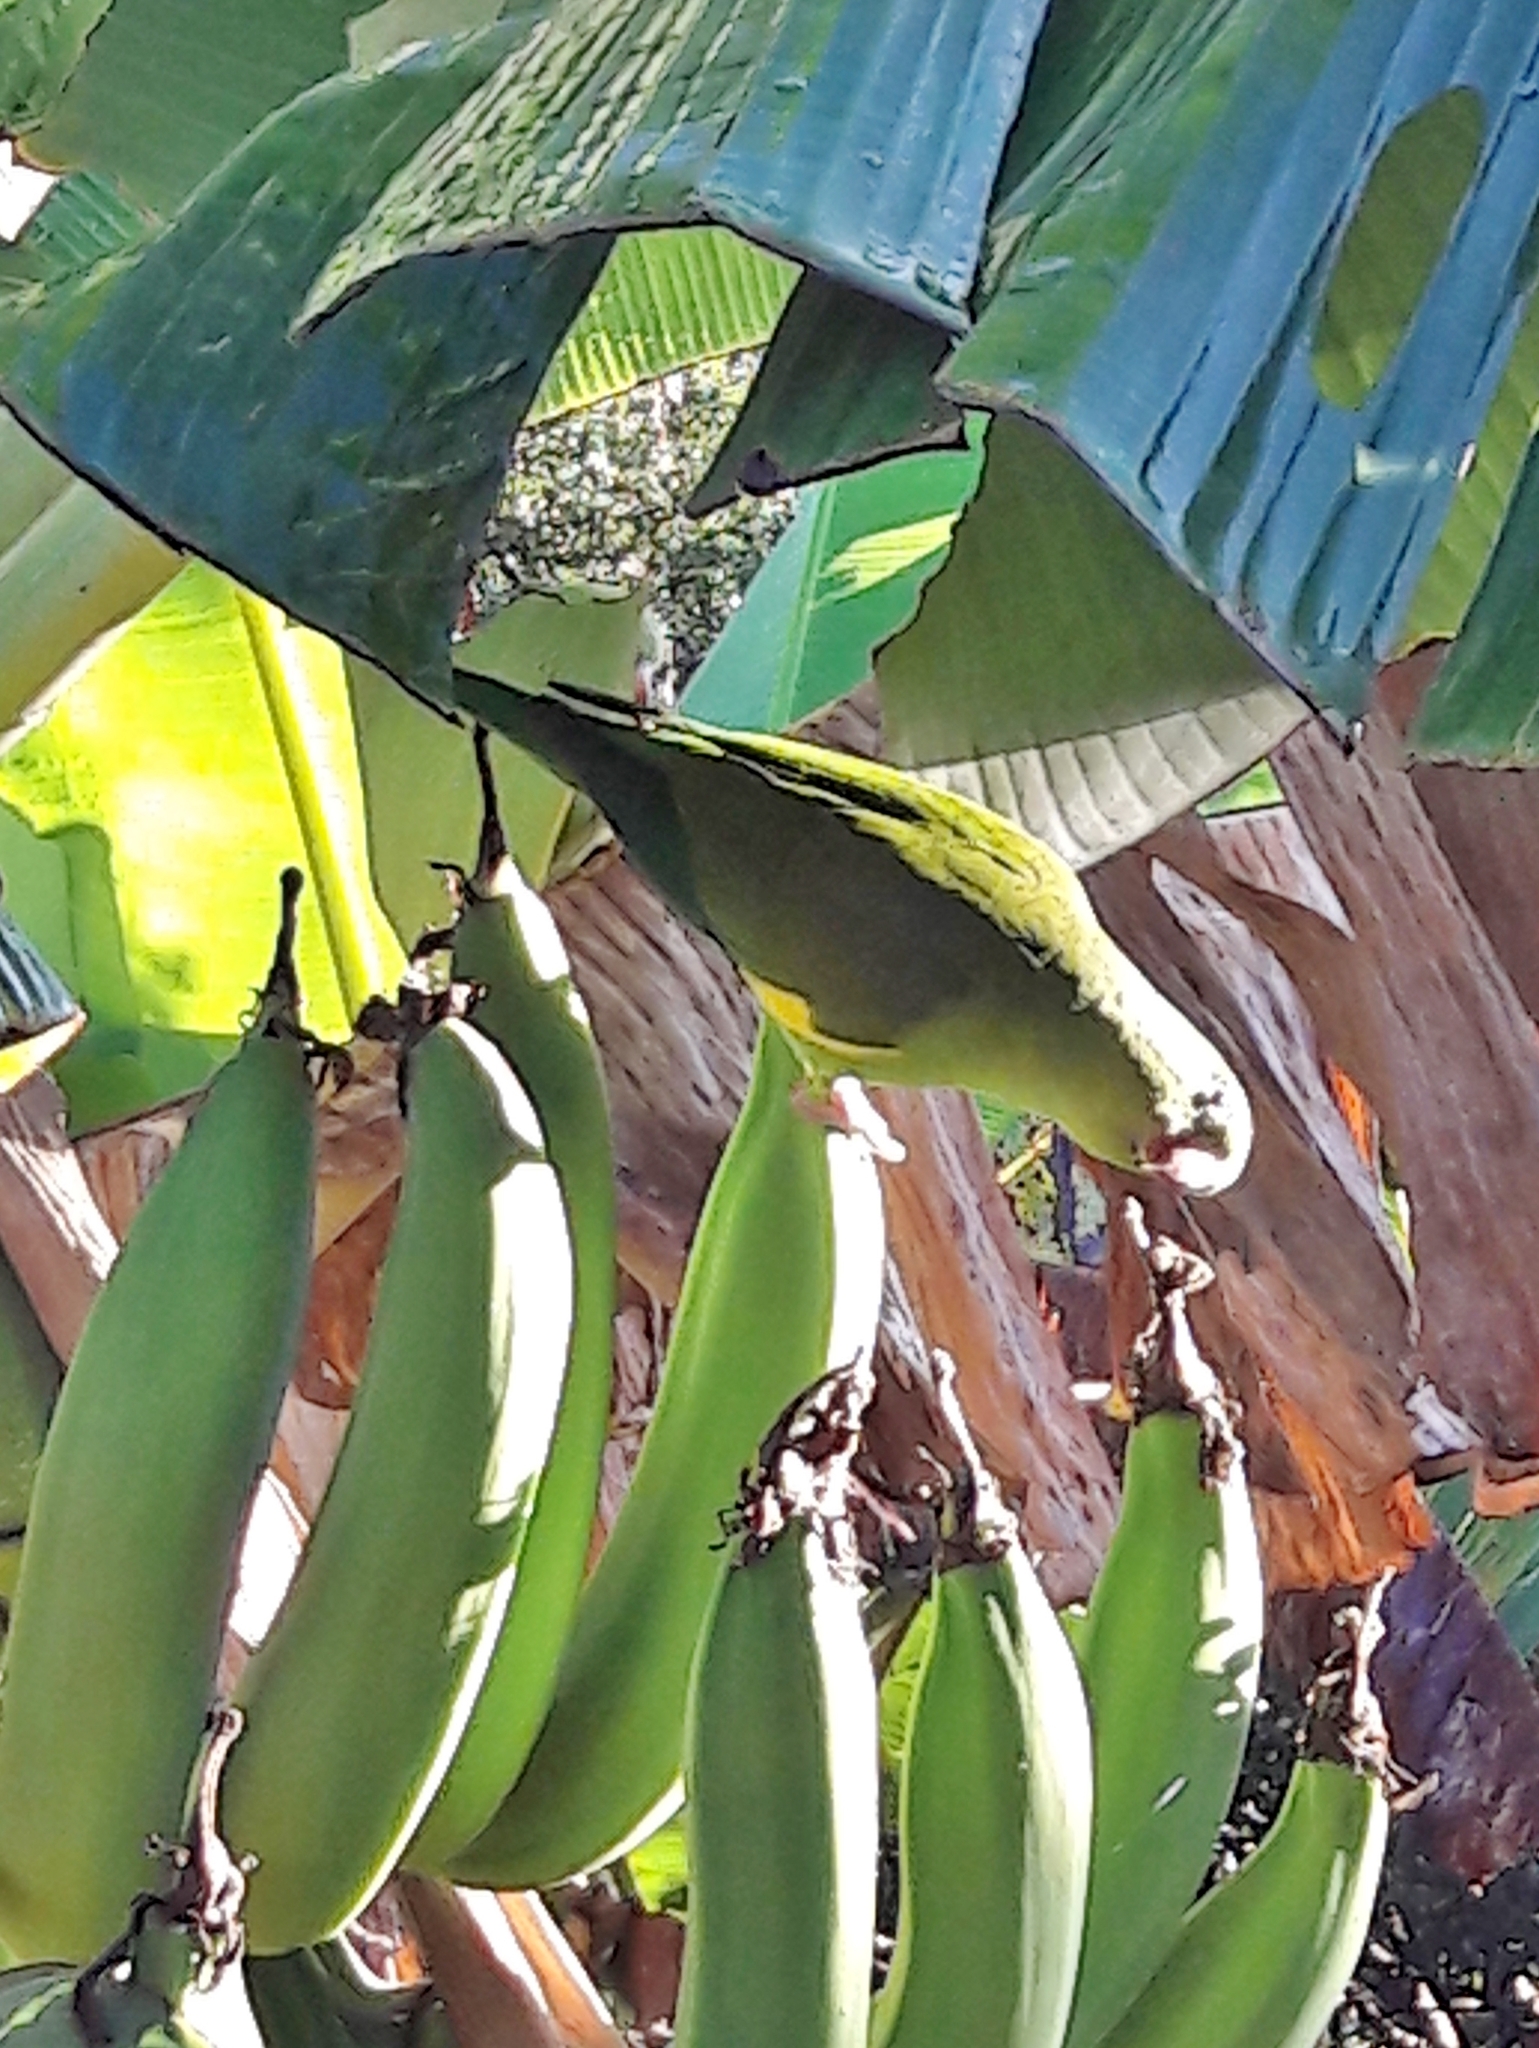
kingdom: Animalia
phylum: Chordata
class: Aves
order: Psittaciformes
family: Psittacidae
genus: Brotogeris
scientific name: Brotogeris chiriri
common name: Yellow-chevroned parakeet
